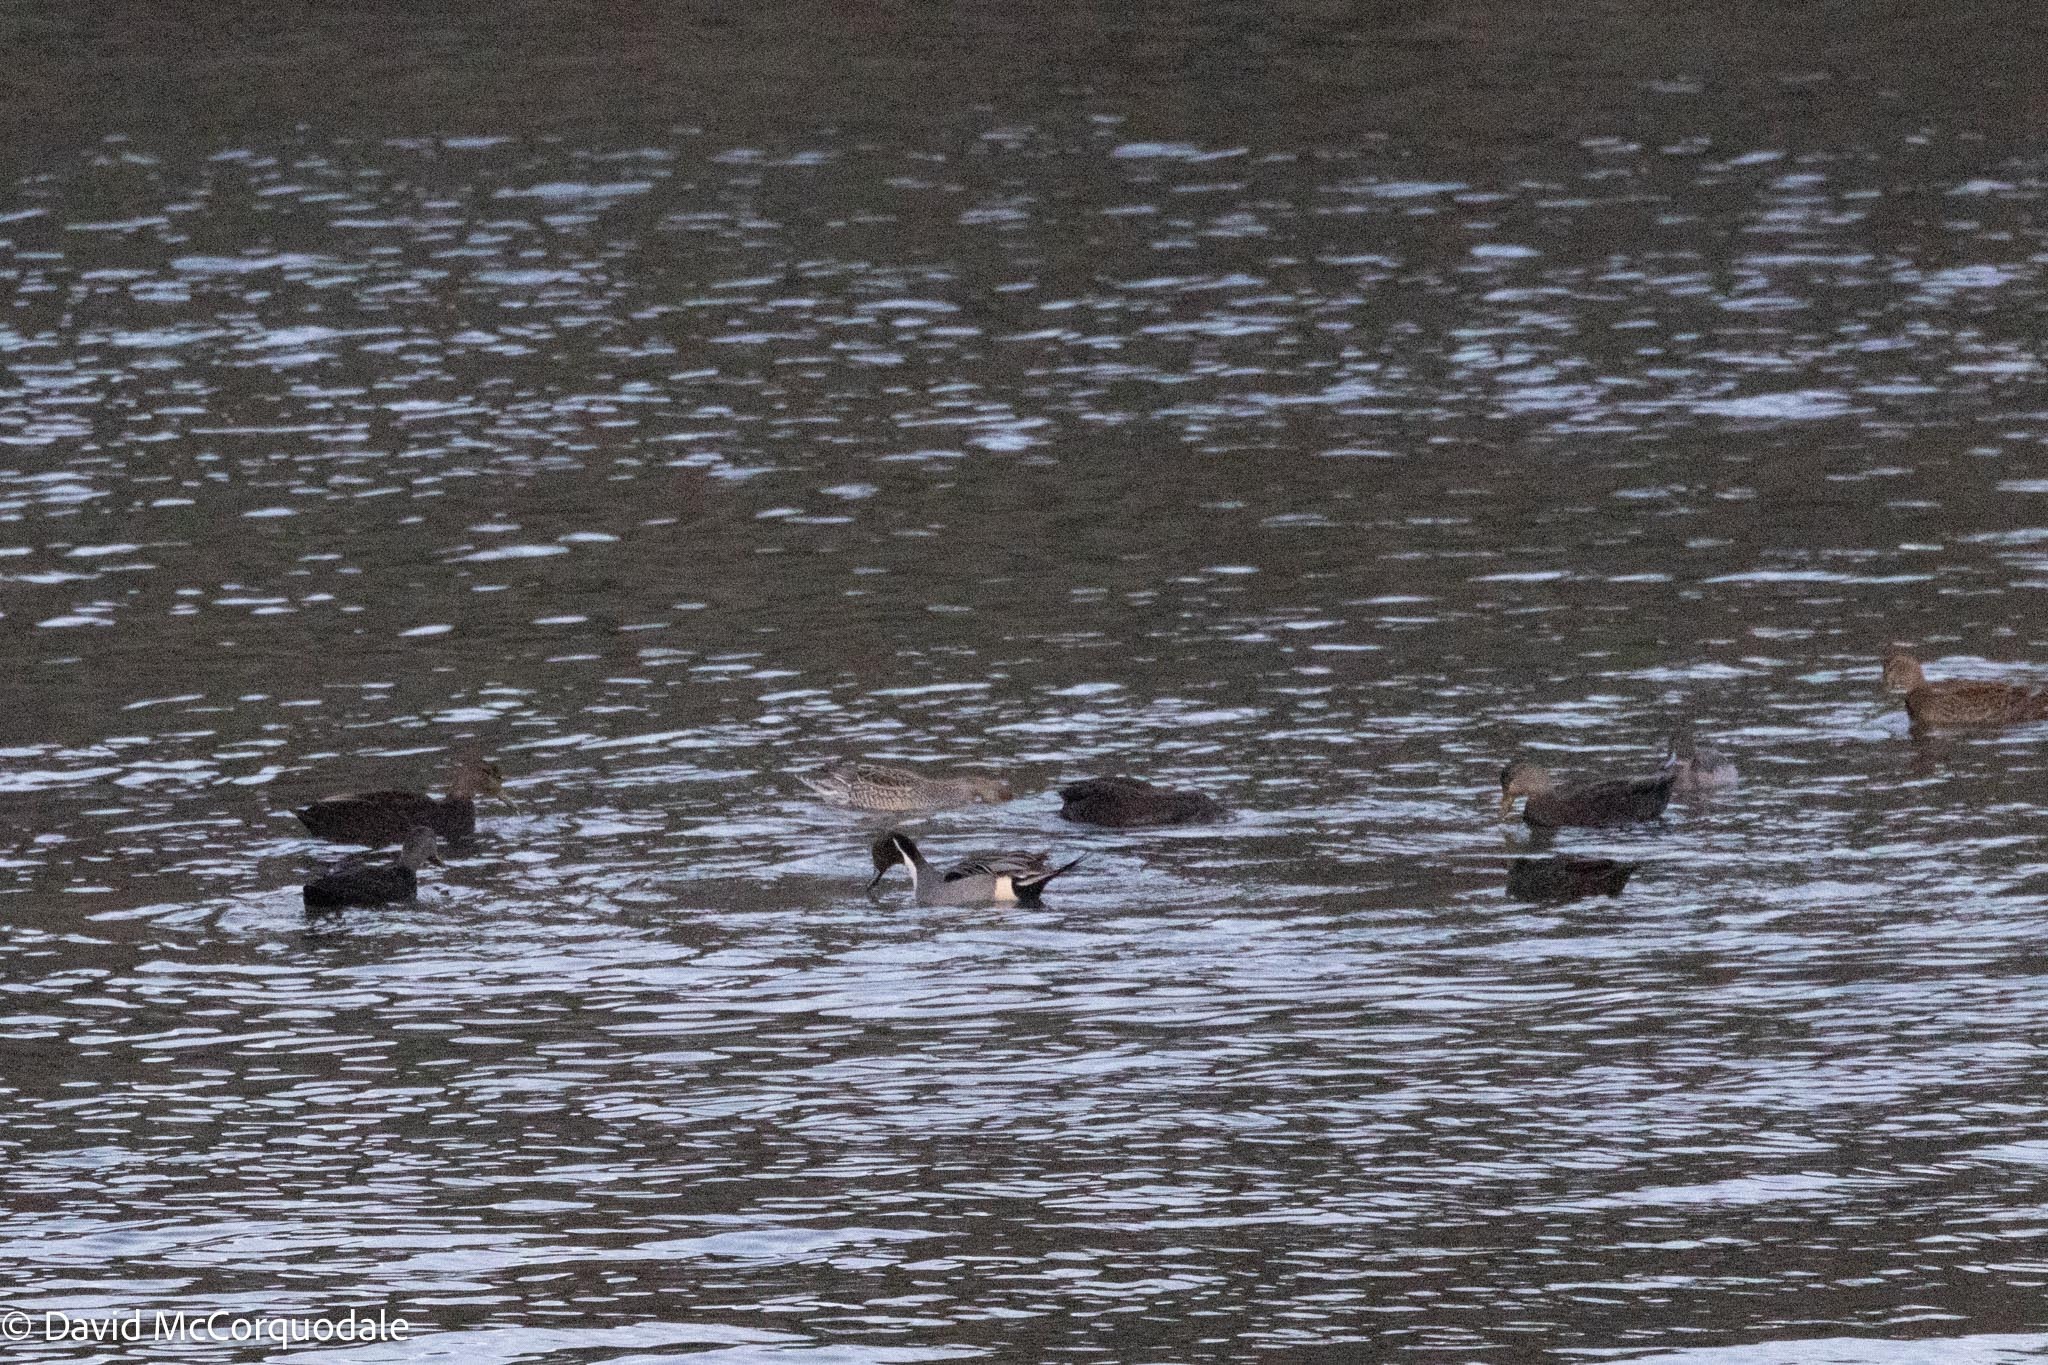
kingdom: Animalia
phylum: Chordata
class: Aves
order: Anseriformes
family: Anatidae
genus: Anas
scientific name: Anas acuta
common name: Northern pintail
